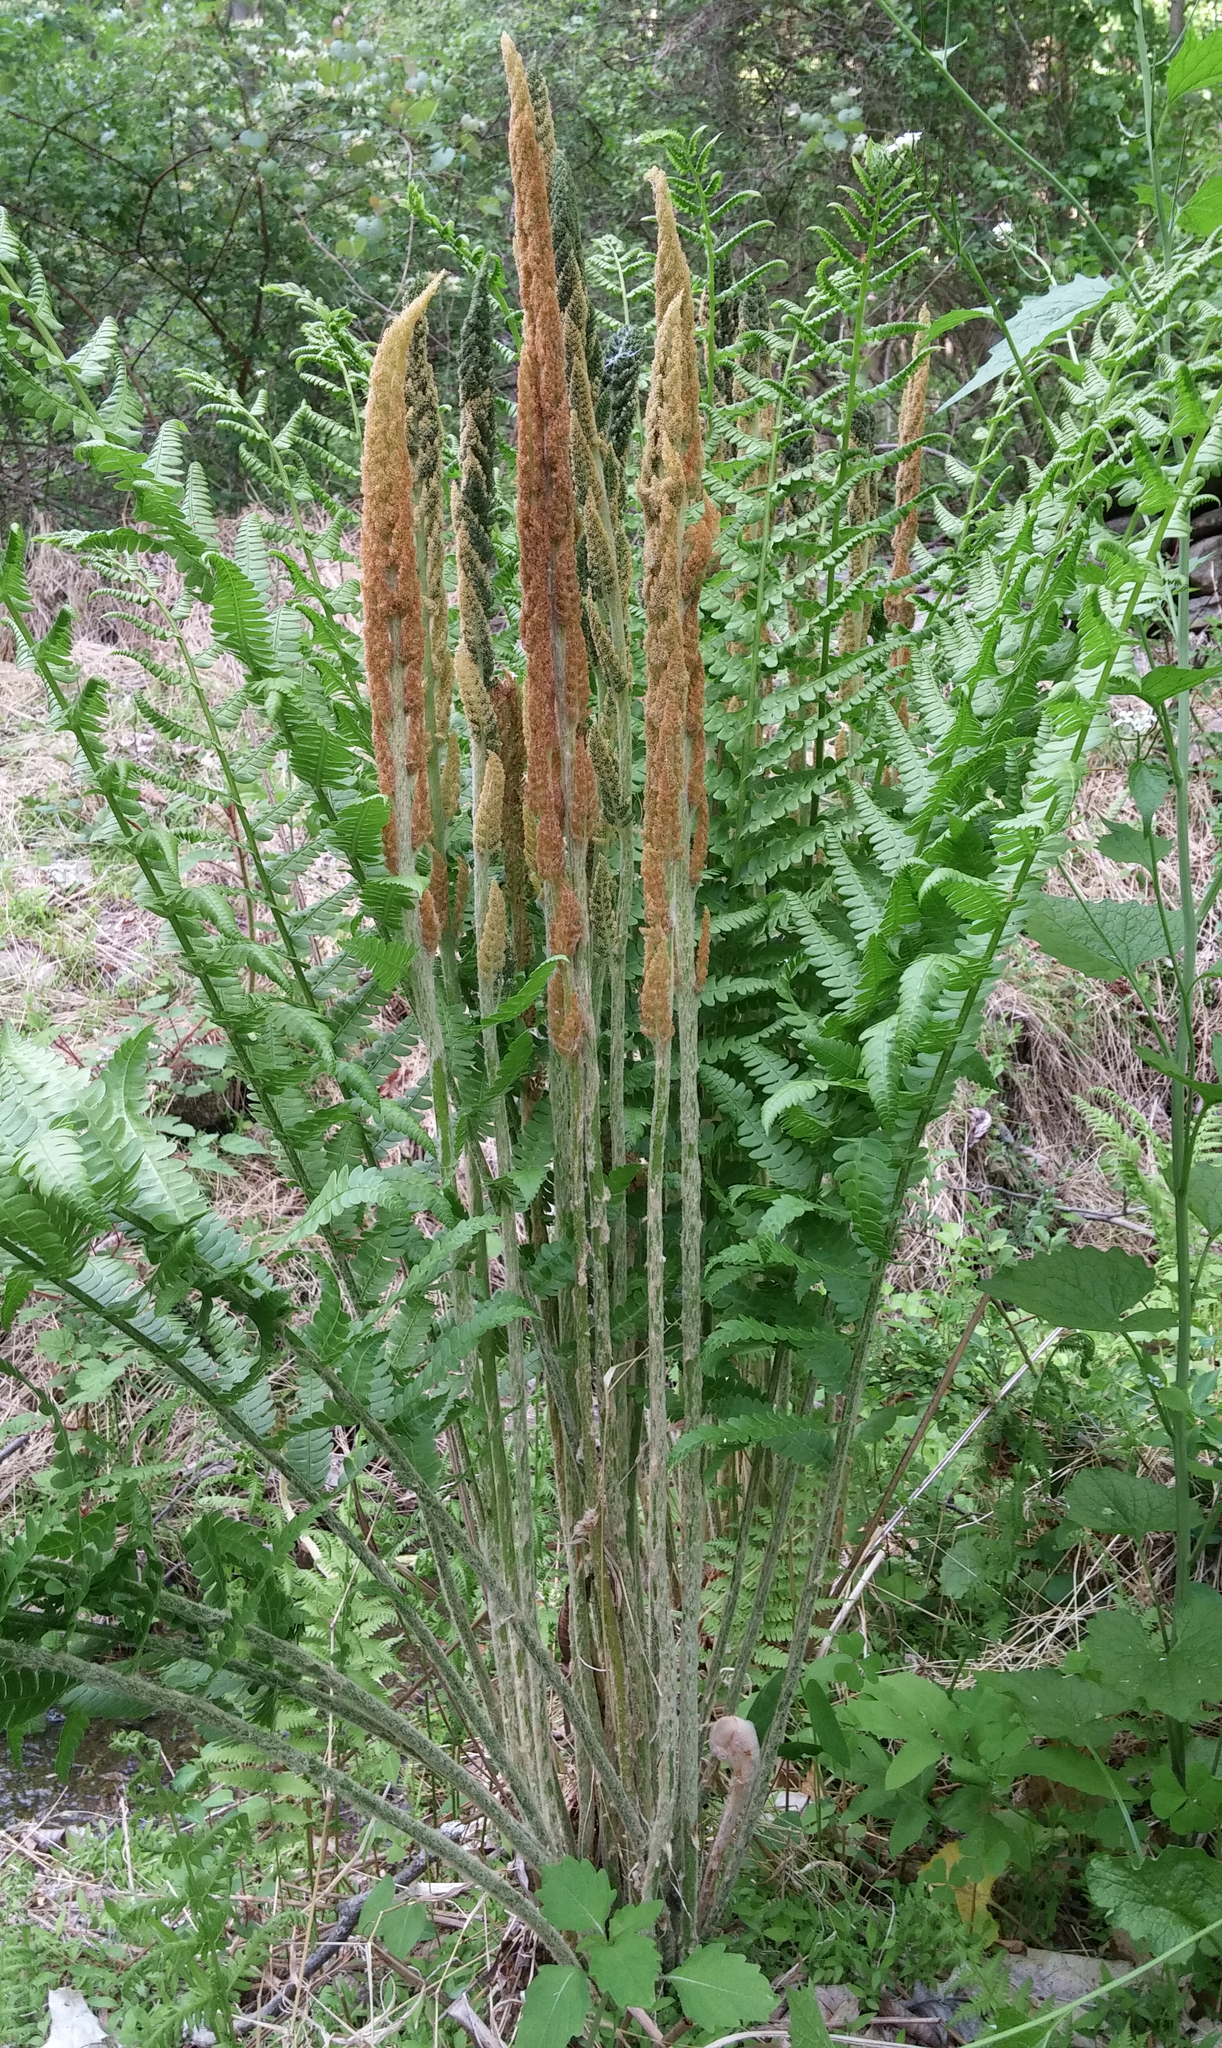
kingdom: Plantae
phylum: Tracheophyta
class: Polypodiopsida
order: Osmundales
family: Osmundaceae
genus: Osmundastrum
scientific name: Osmundastrum cinnamomeum
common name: Cinnamon fern
